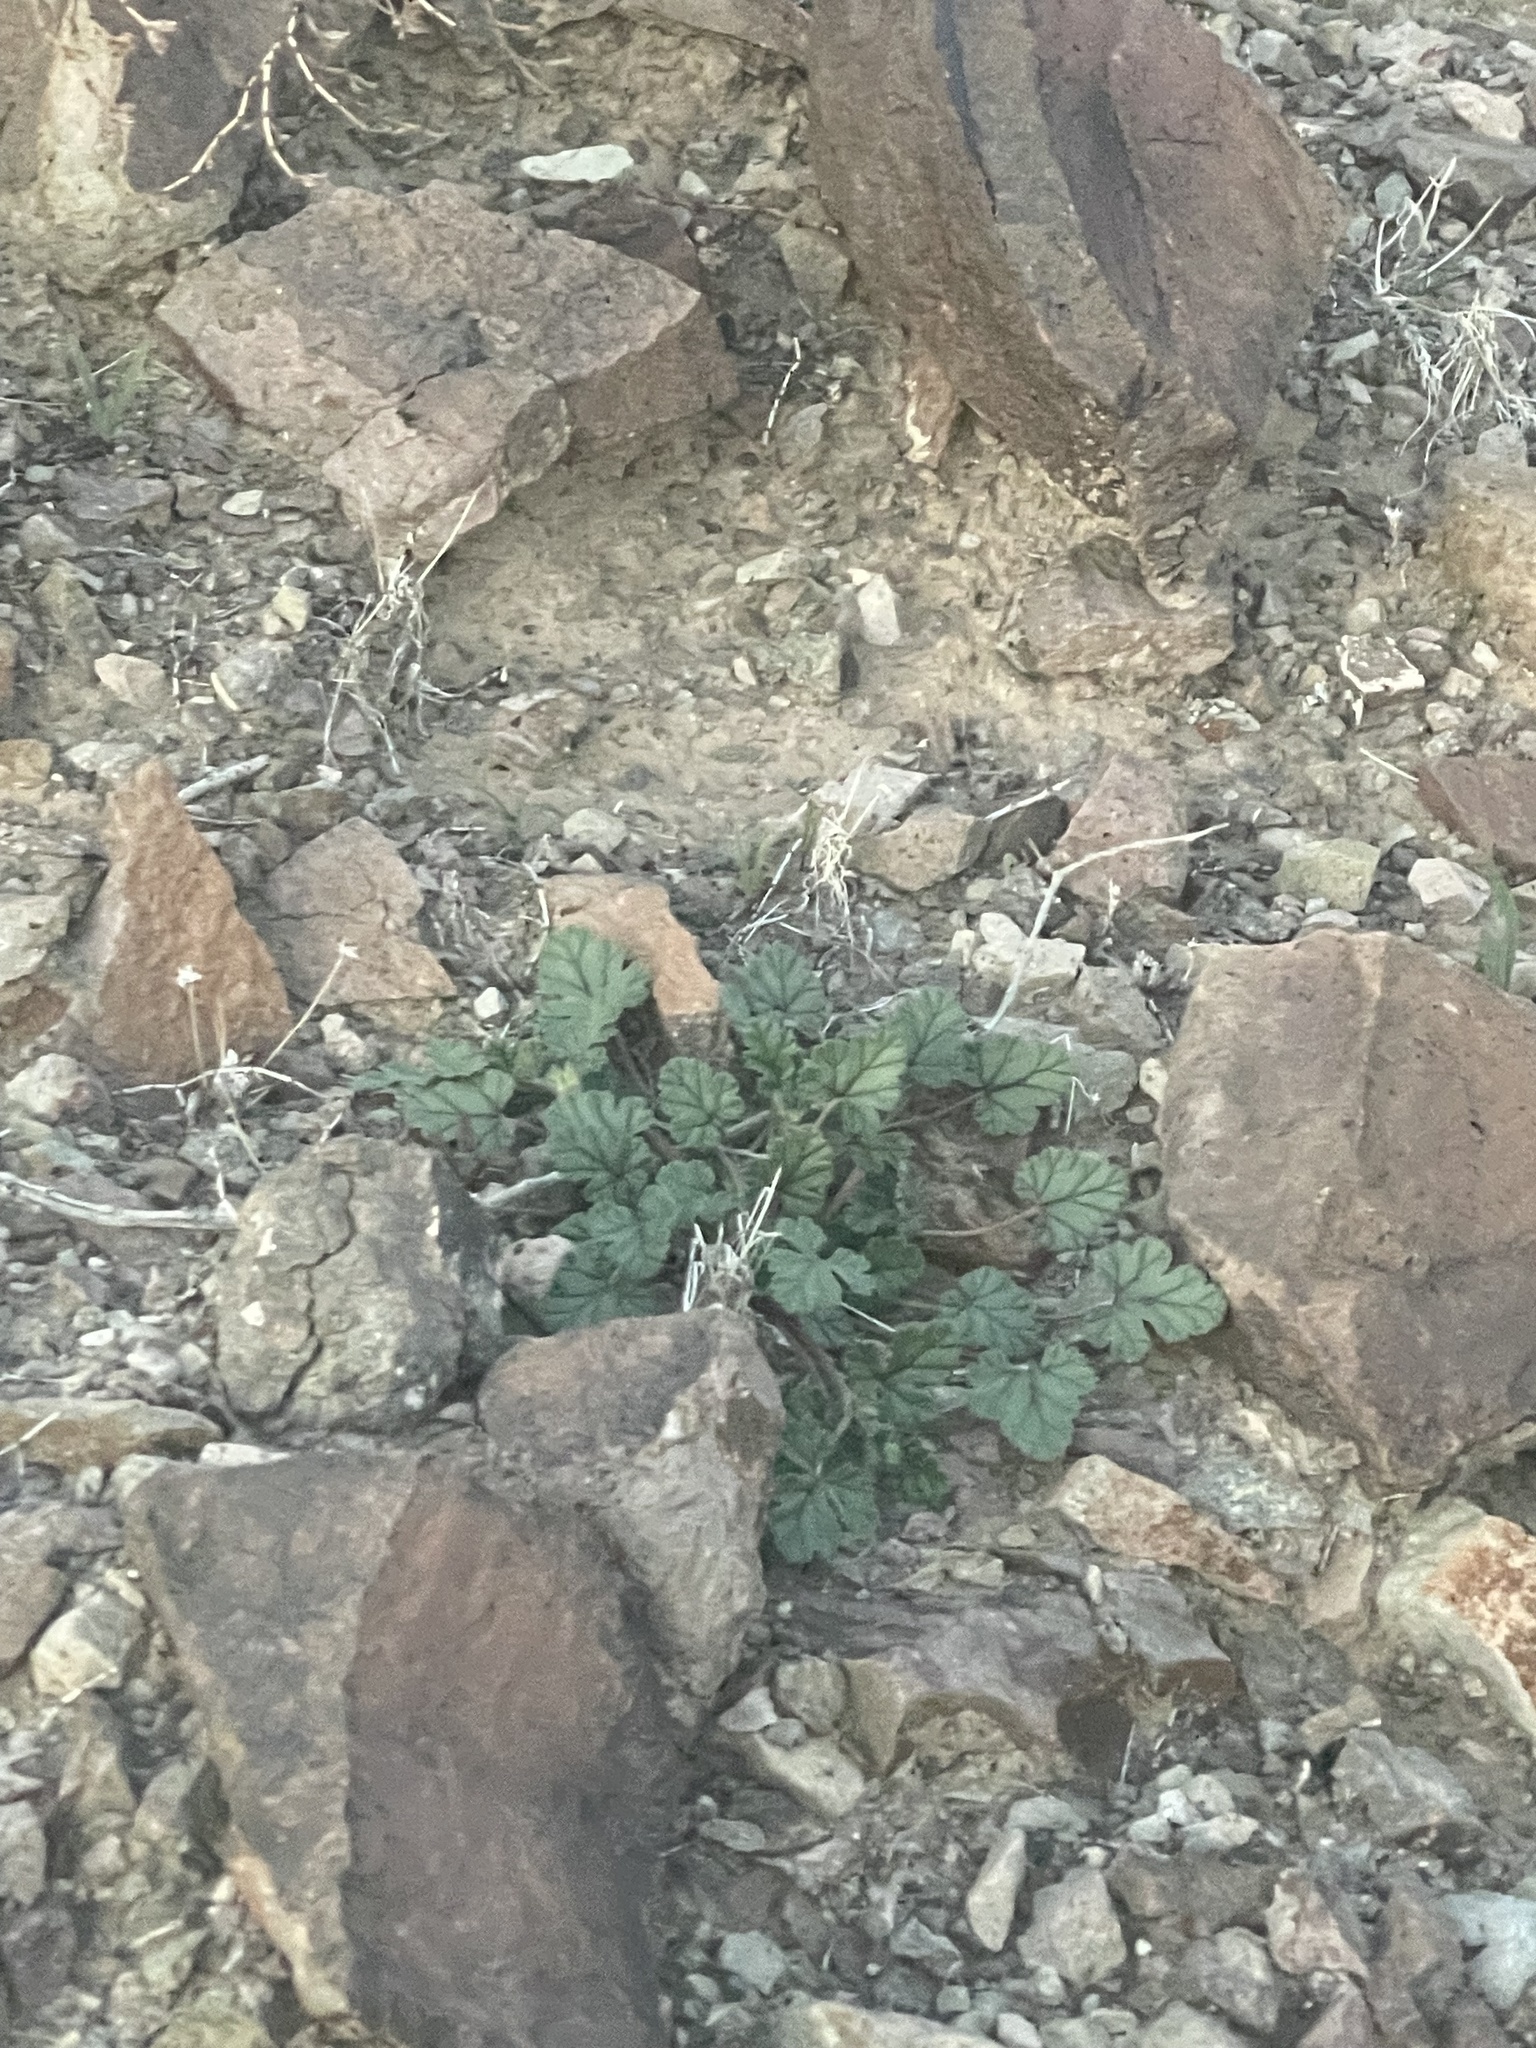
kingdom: Plantae
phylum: Tracheophyta
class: Magnoliopsida
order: Geraniales
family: Geraniaceae
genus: Erodium
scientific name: Erodium texanum
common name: Texas stork's-bill
